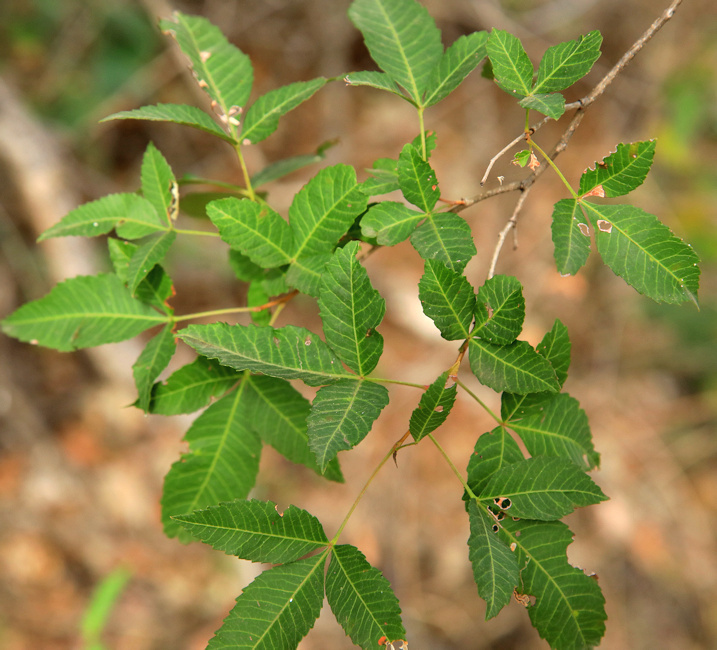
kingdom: Plantae
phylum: Tracheophyta
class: Magnoliopsida
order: Sapindales
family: Anacardiaceae
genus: Searsia
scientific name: Searsia leptodictya
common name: Mountain karee
